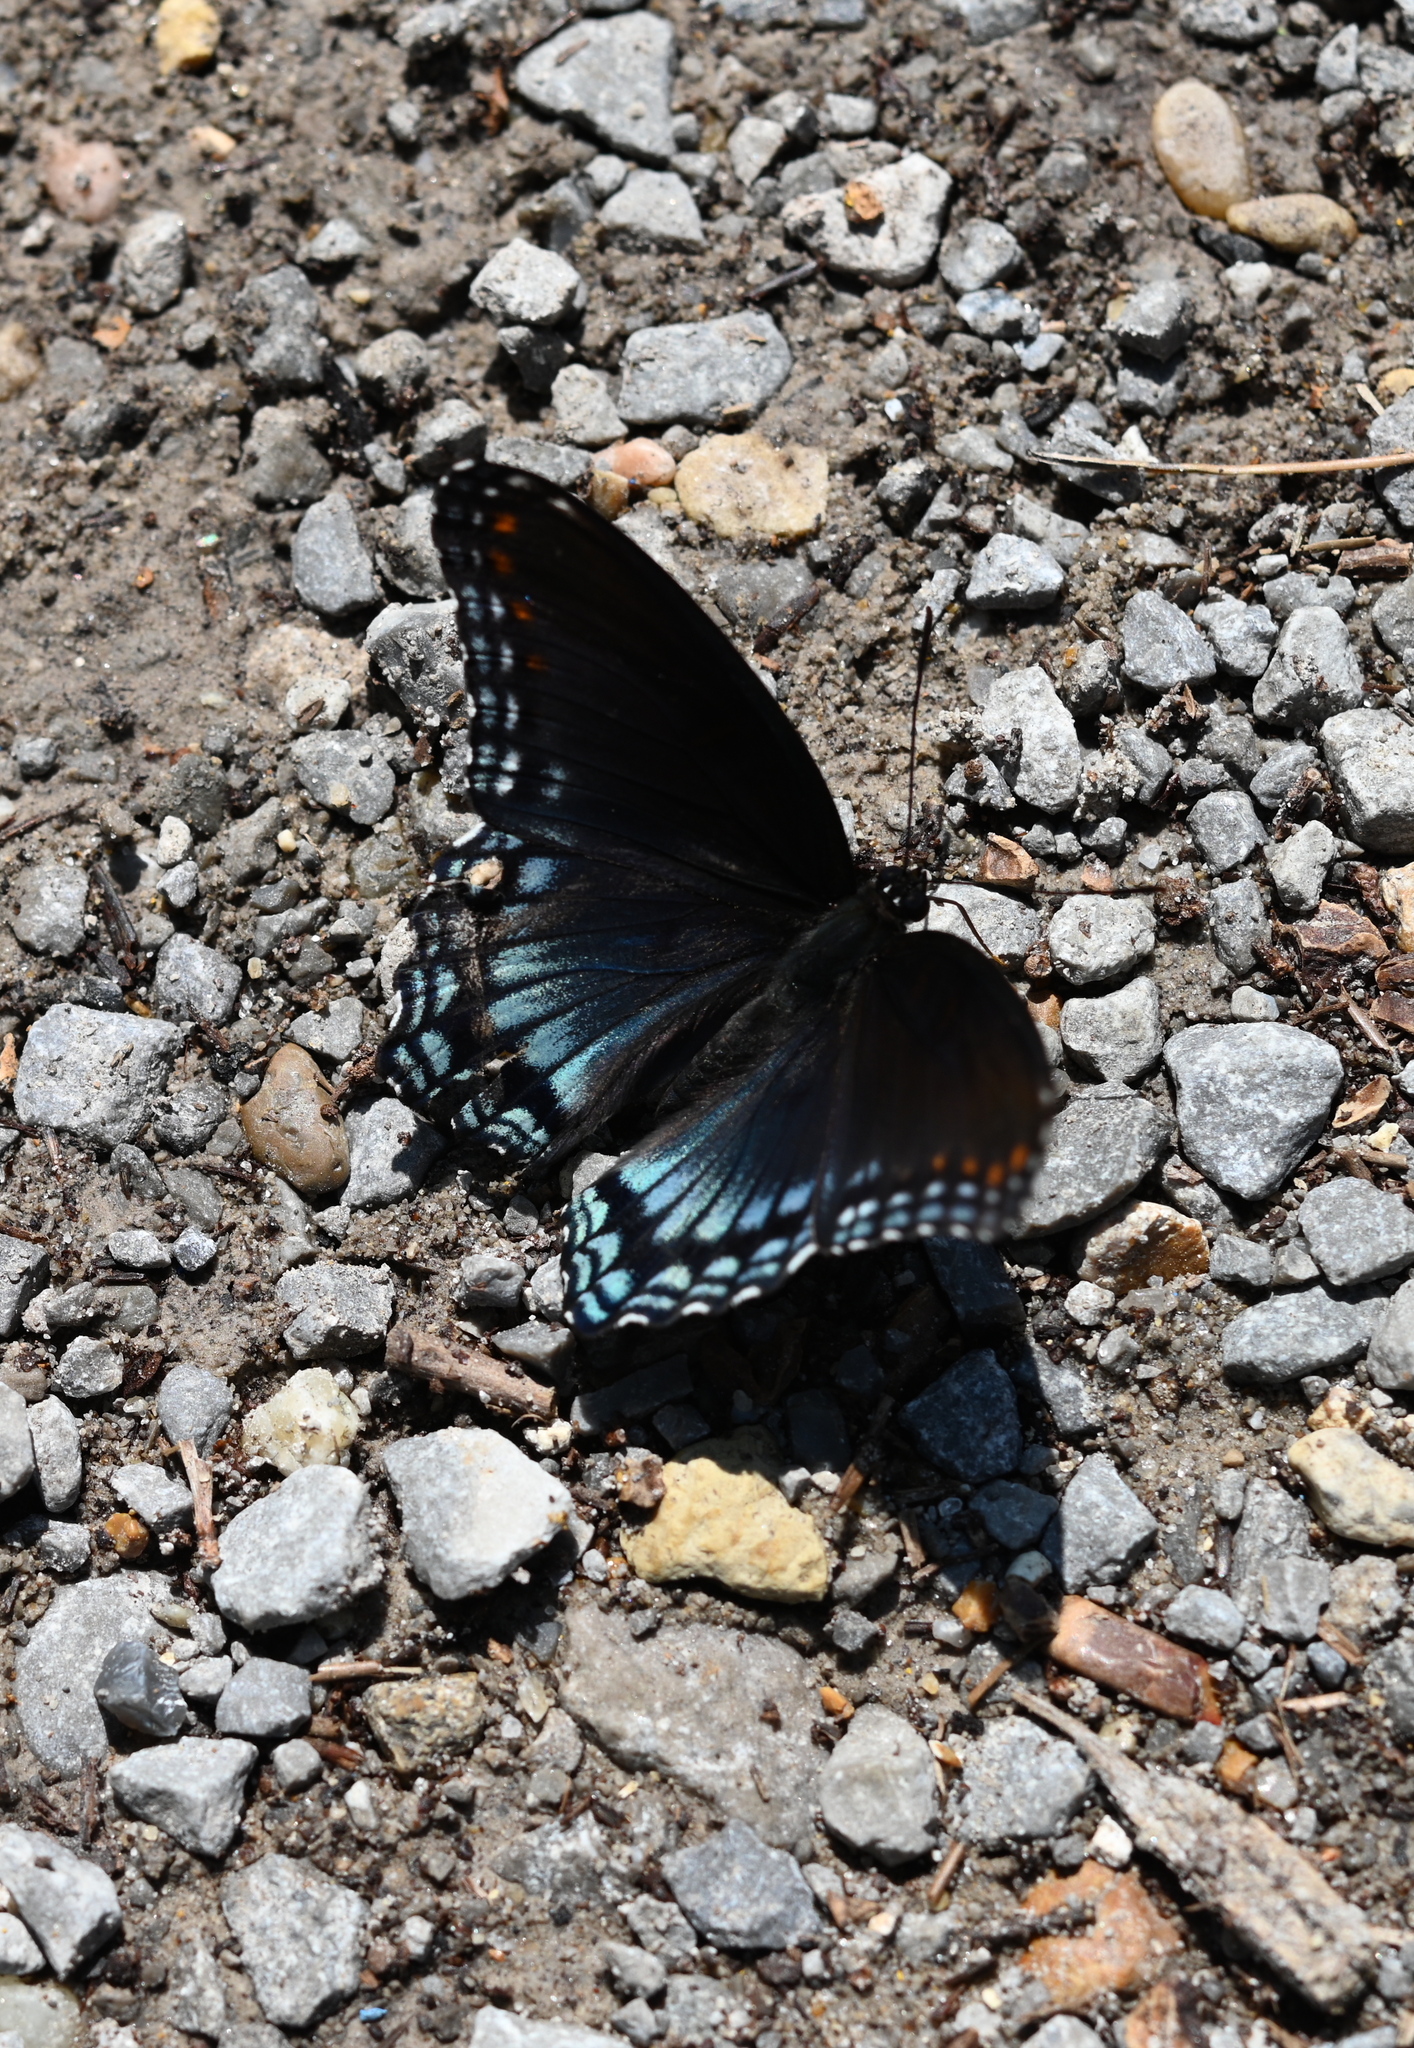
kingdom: Animalia
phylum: Arthropoda
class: Insecta
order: Lepidoptera
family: Nymphalidae
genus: Limenitis
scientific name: Limenitis astyanax
